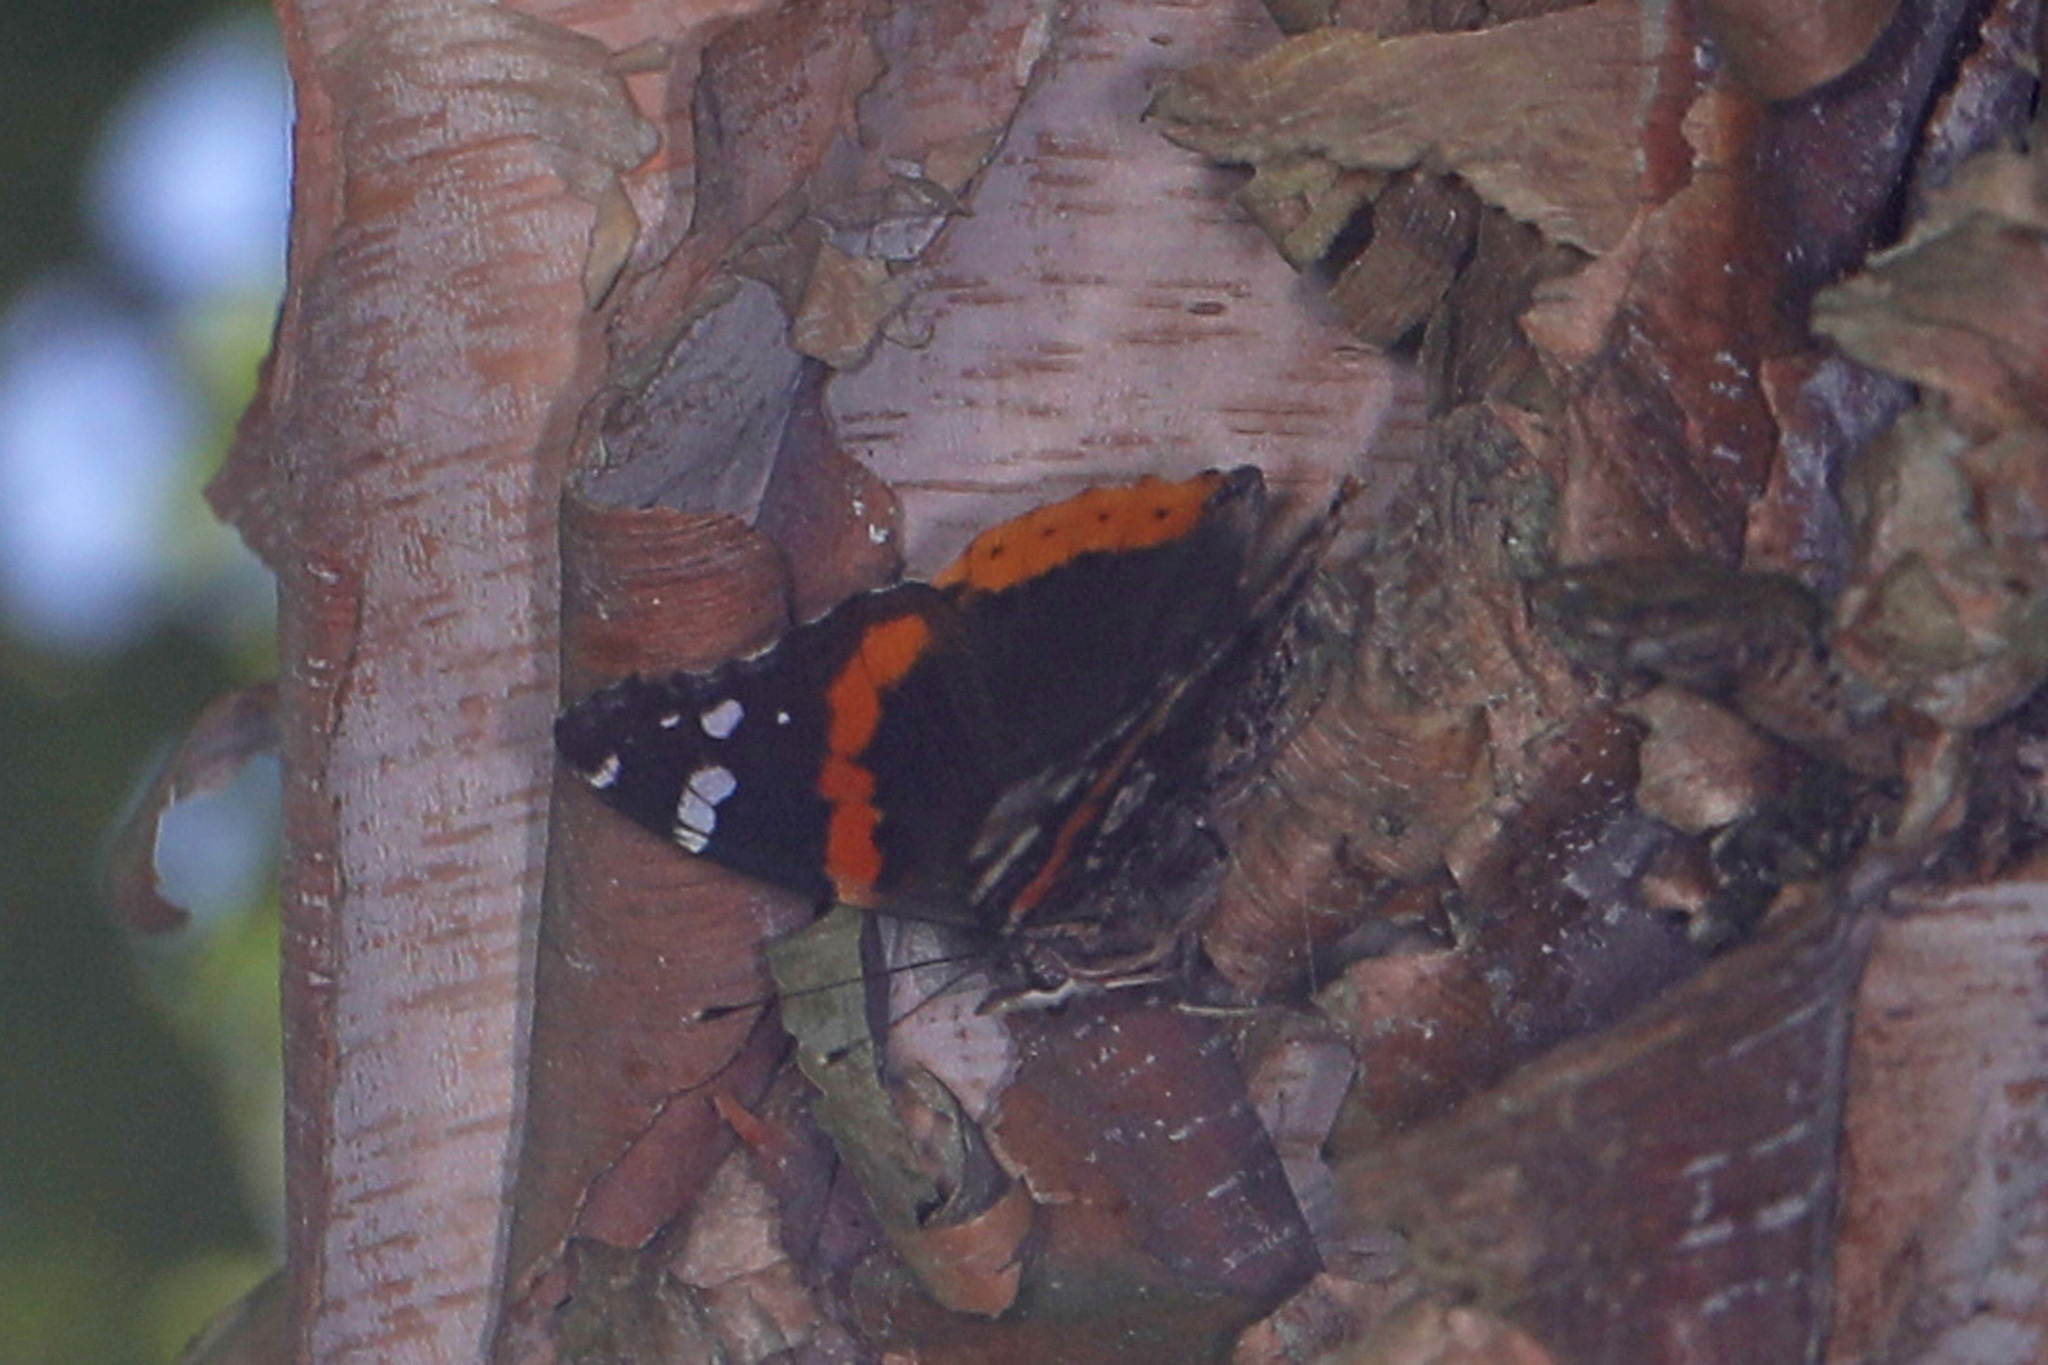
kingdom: Animalia
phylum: Arthropoda
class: Insecta
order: Lepidoptera
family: Nymphalidae
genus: Vanessa
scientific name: Vanessa atalanta
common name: Red admiral
